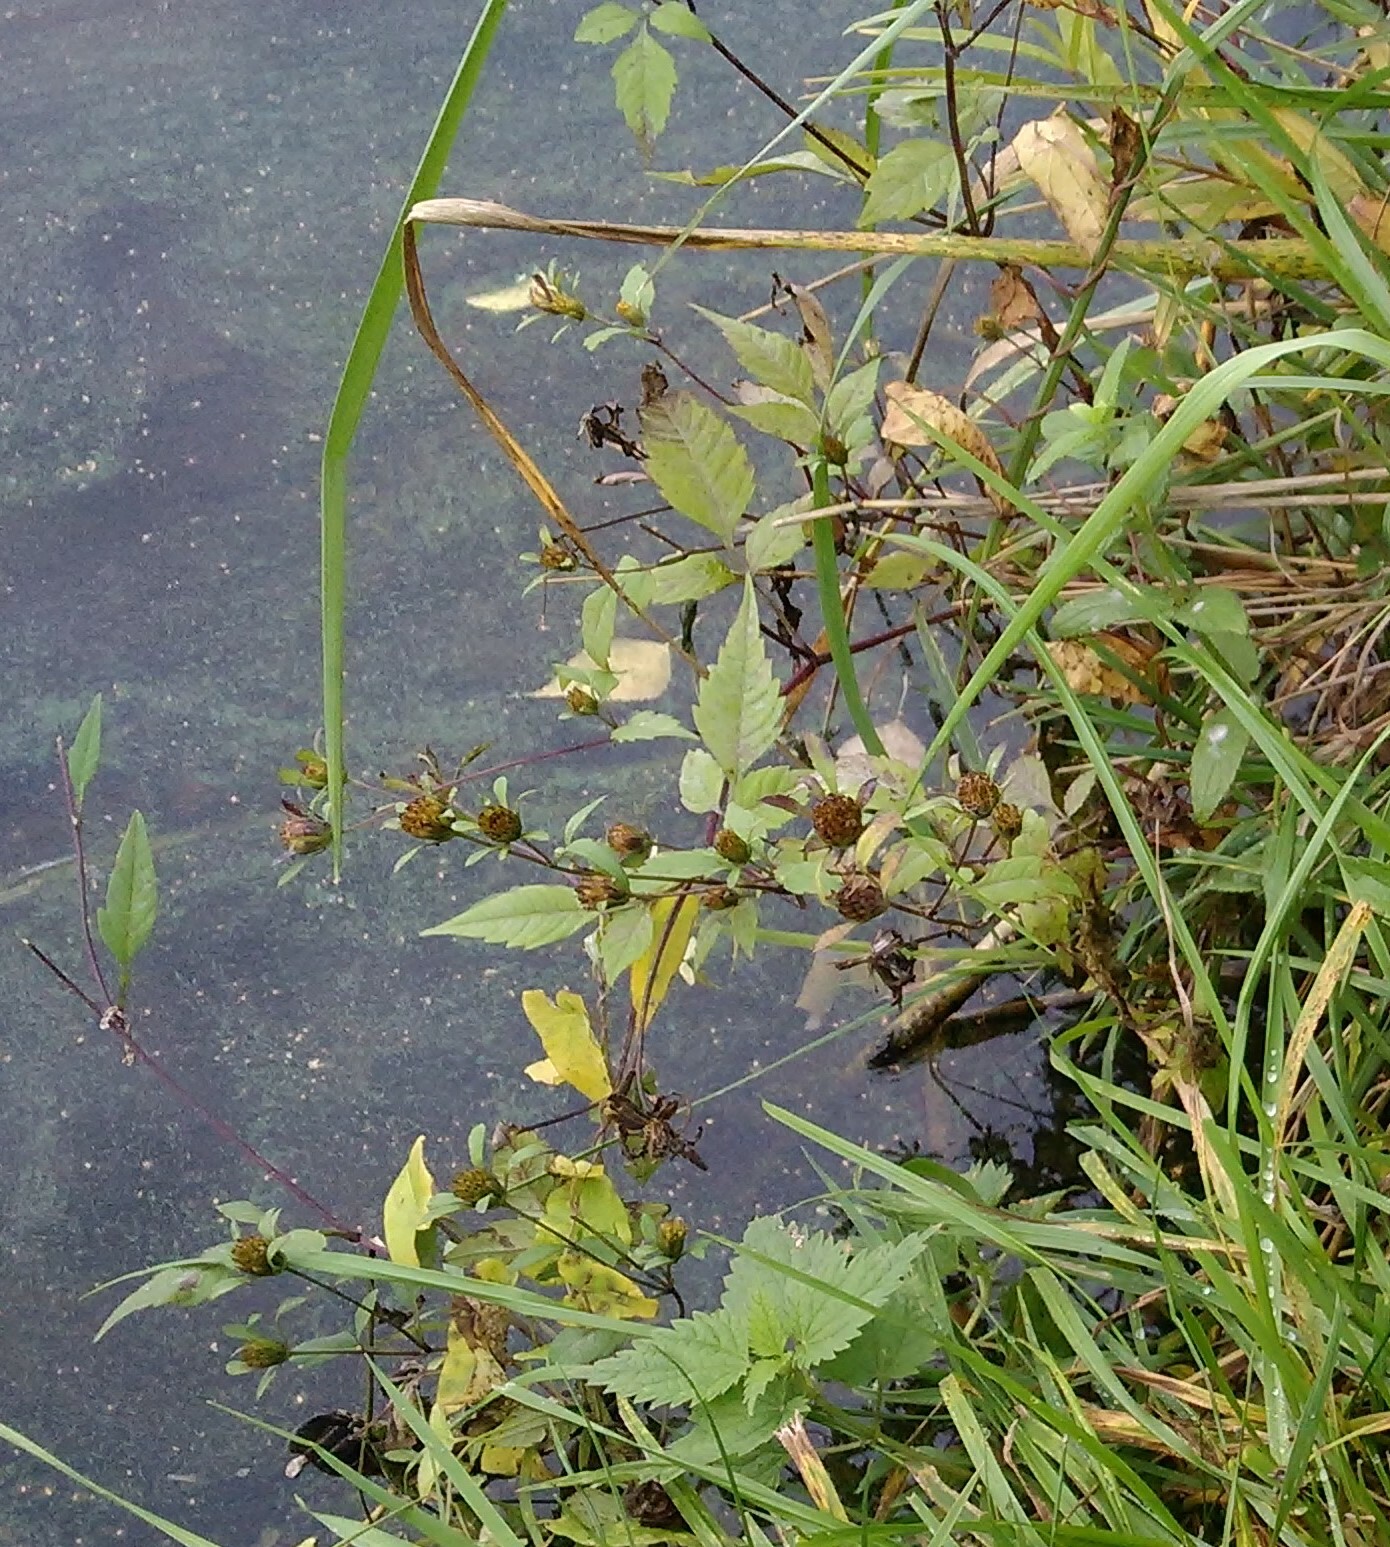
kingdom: Plantae
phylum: Tracheophyta
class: Magnoliopsida
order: Asterales
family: Asteraceae
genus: Bidens
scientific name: Bidens frondosa
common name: Beggarticks
